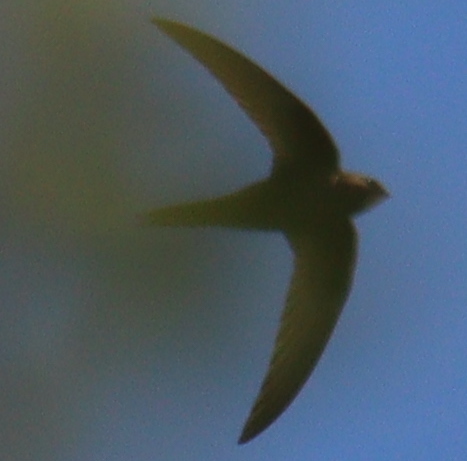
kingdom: Animalia
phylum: Chordata
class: Aves
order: Apodiformes
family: Apodidae
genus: Apus
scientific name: Apus apus
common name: Common swift
